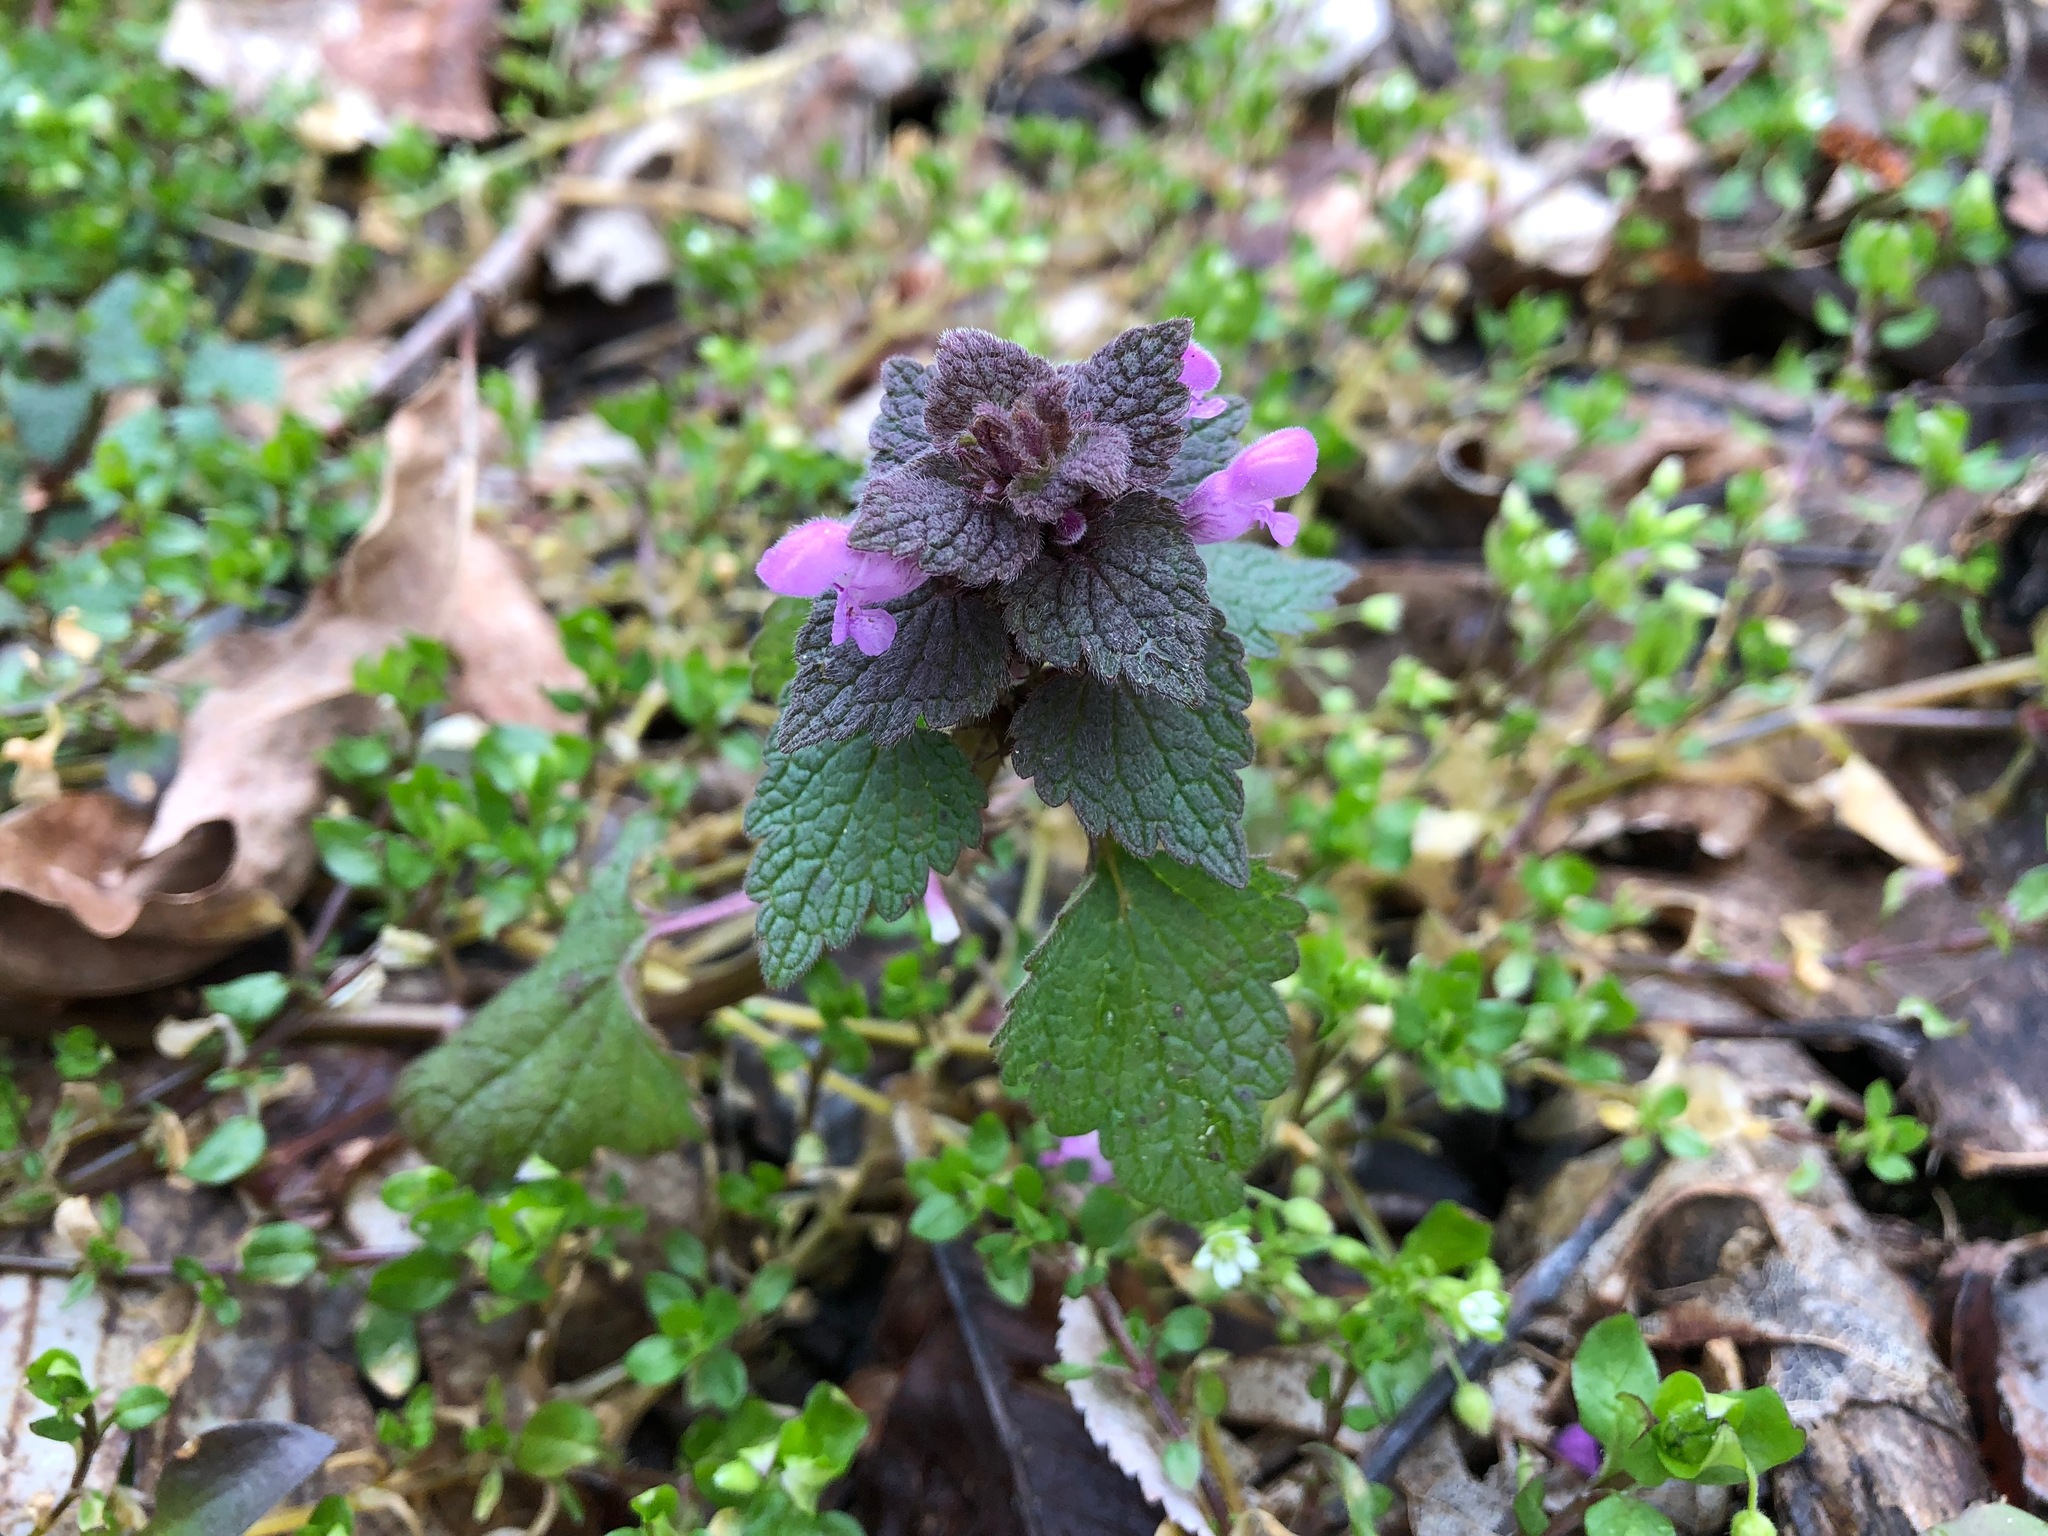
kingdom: Plantae
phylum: Tracheophyta
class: Magnoliopsida
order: Lamiales
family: Lamiaceae
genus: Lamium
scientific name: Lamium purpureum
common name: Red dead-nettle
